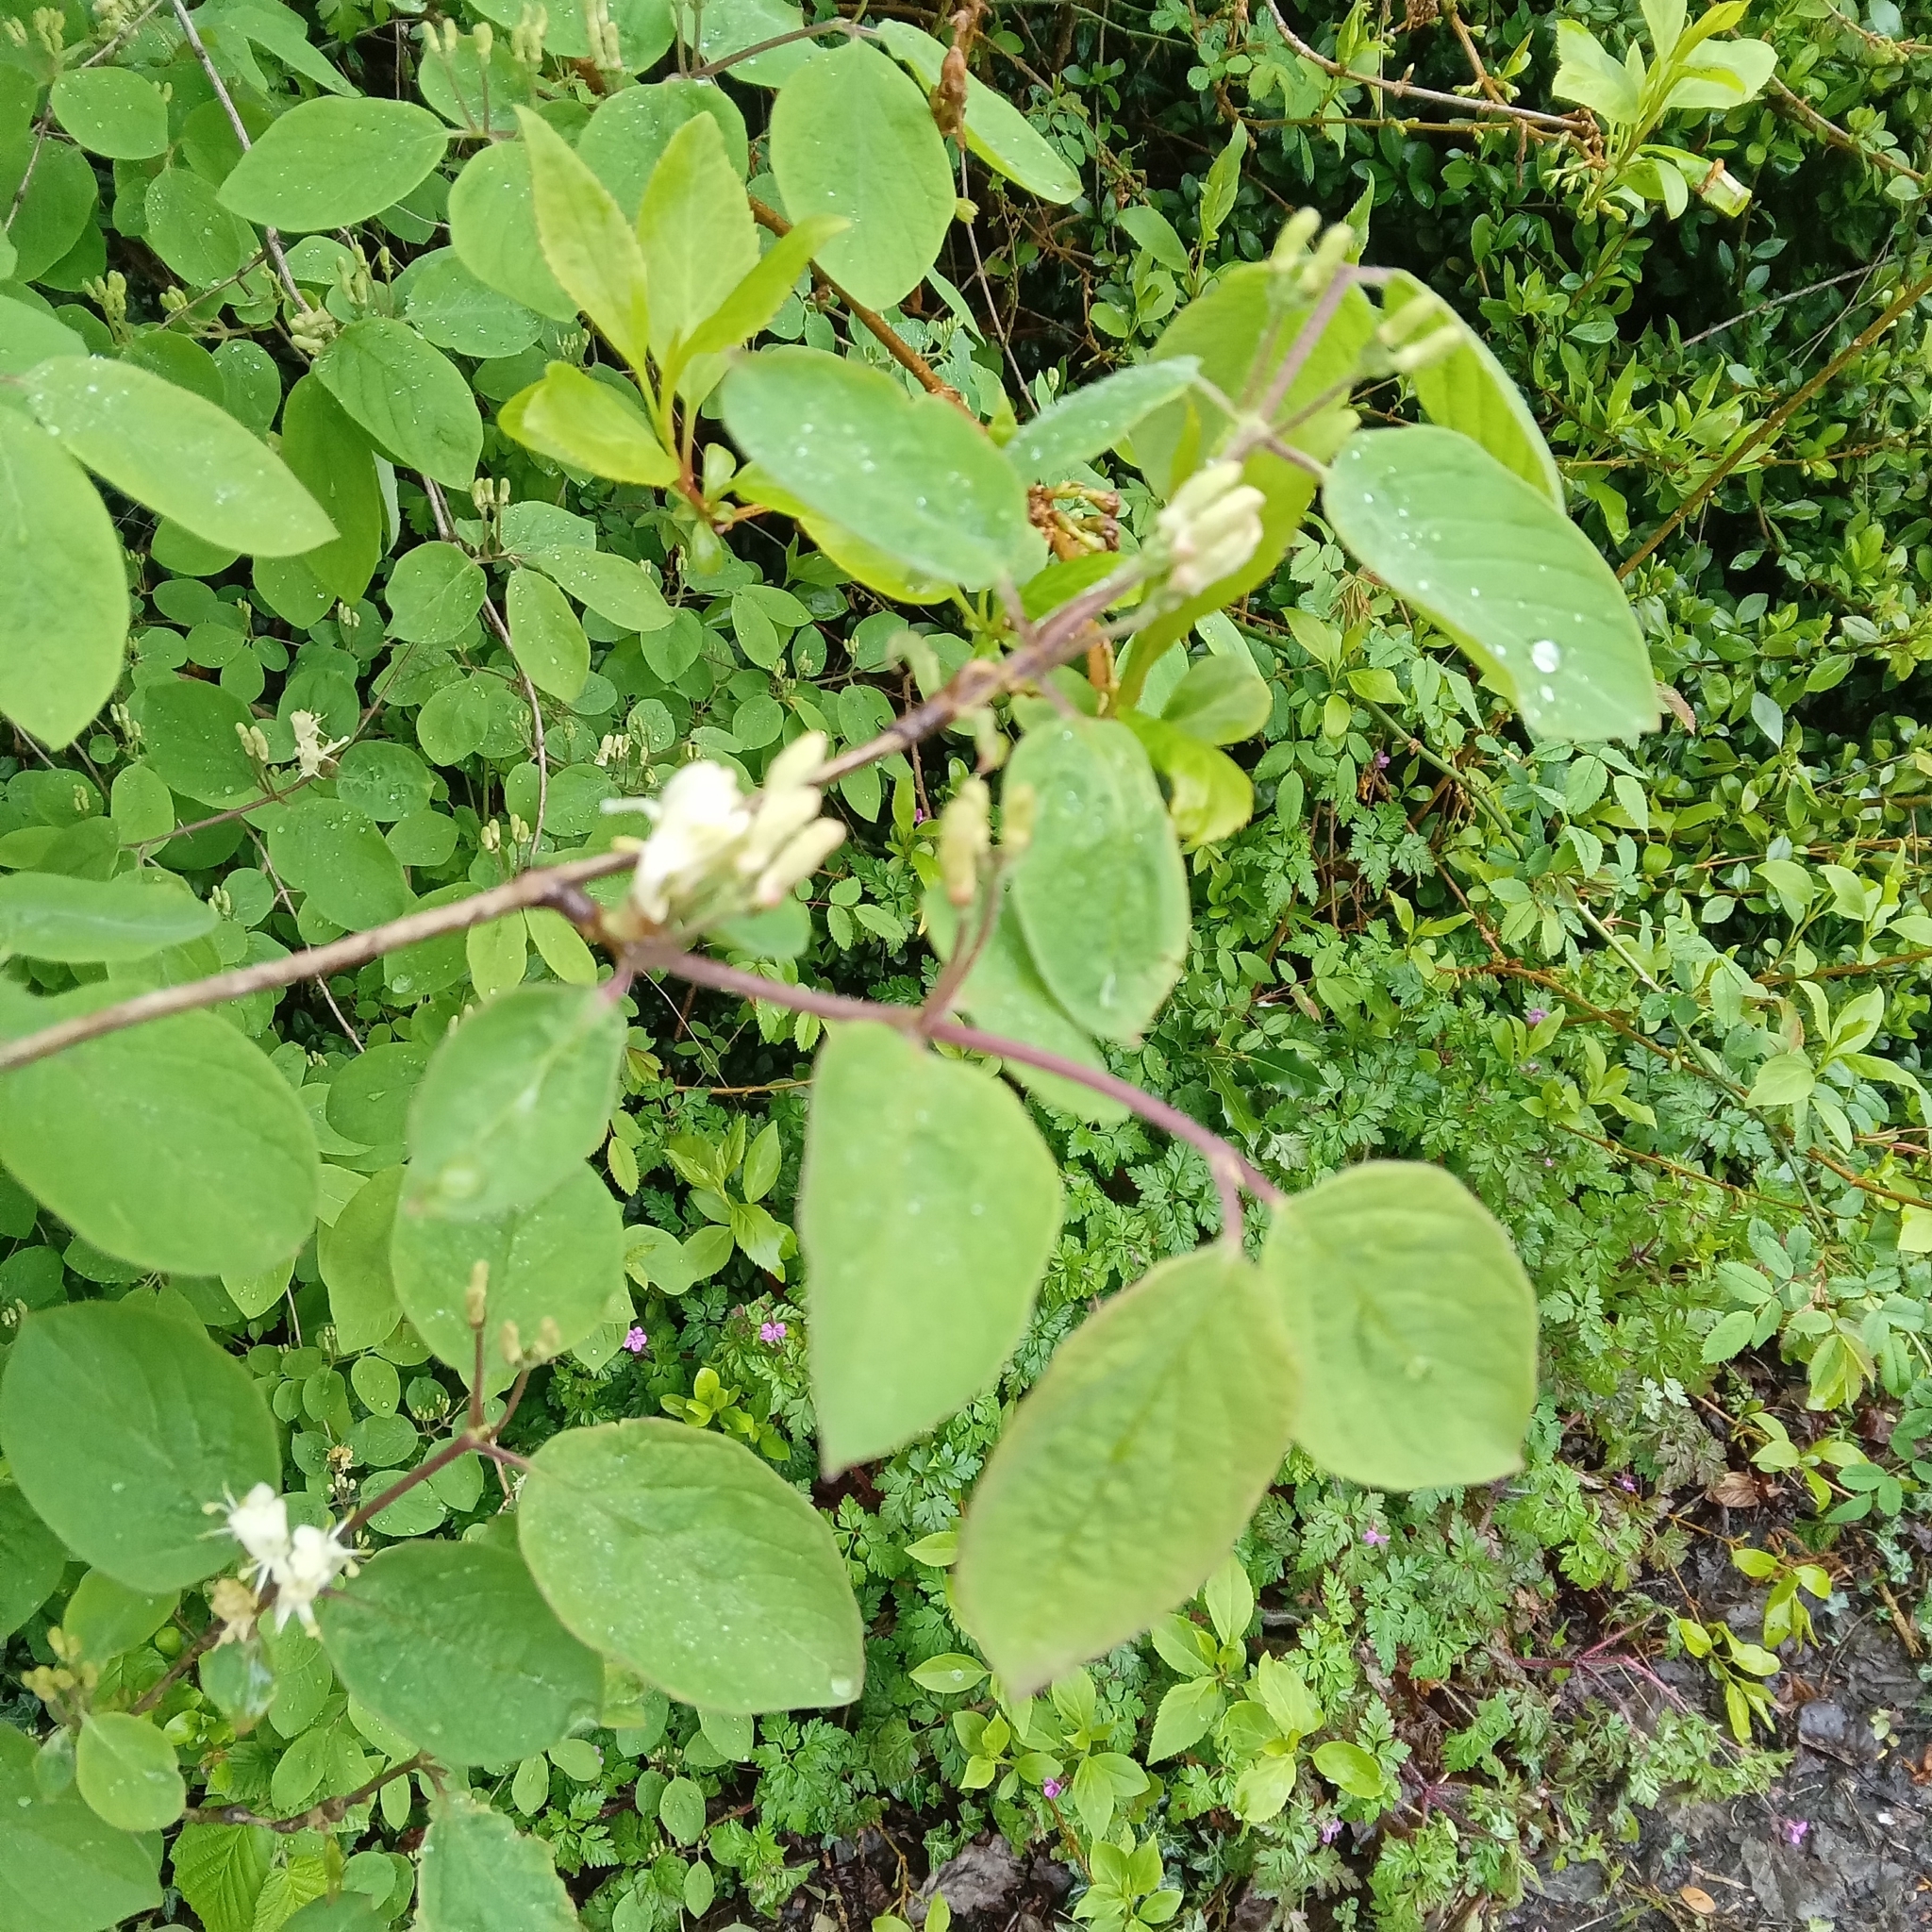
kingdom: Plantae
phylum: Tracheophyta
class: Magnoliopsida
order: Dipsacales
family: Caprifoliaceae
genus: Lonicera
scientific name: Lonicera xylosteum
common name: Fly honeysuckle
